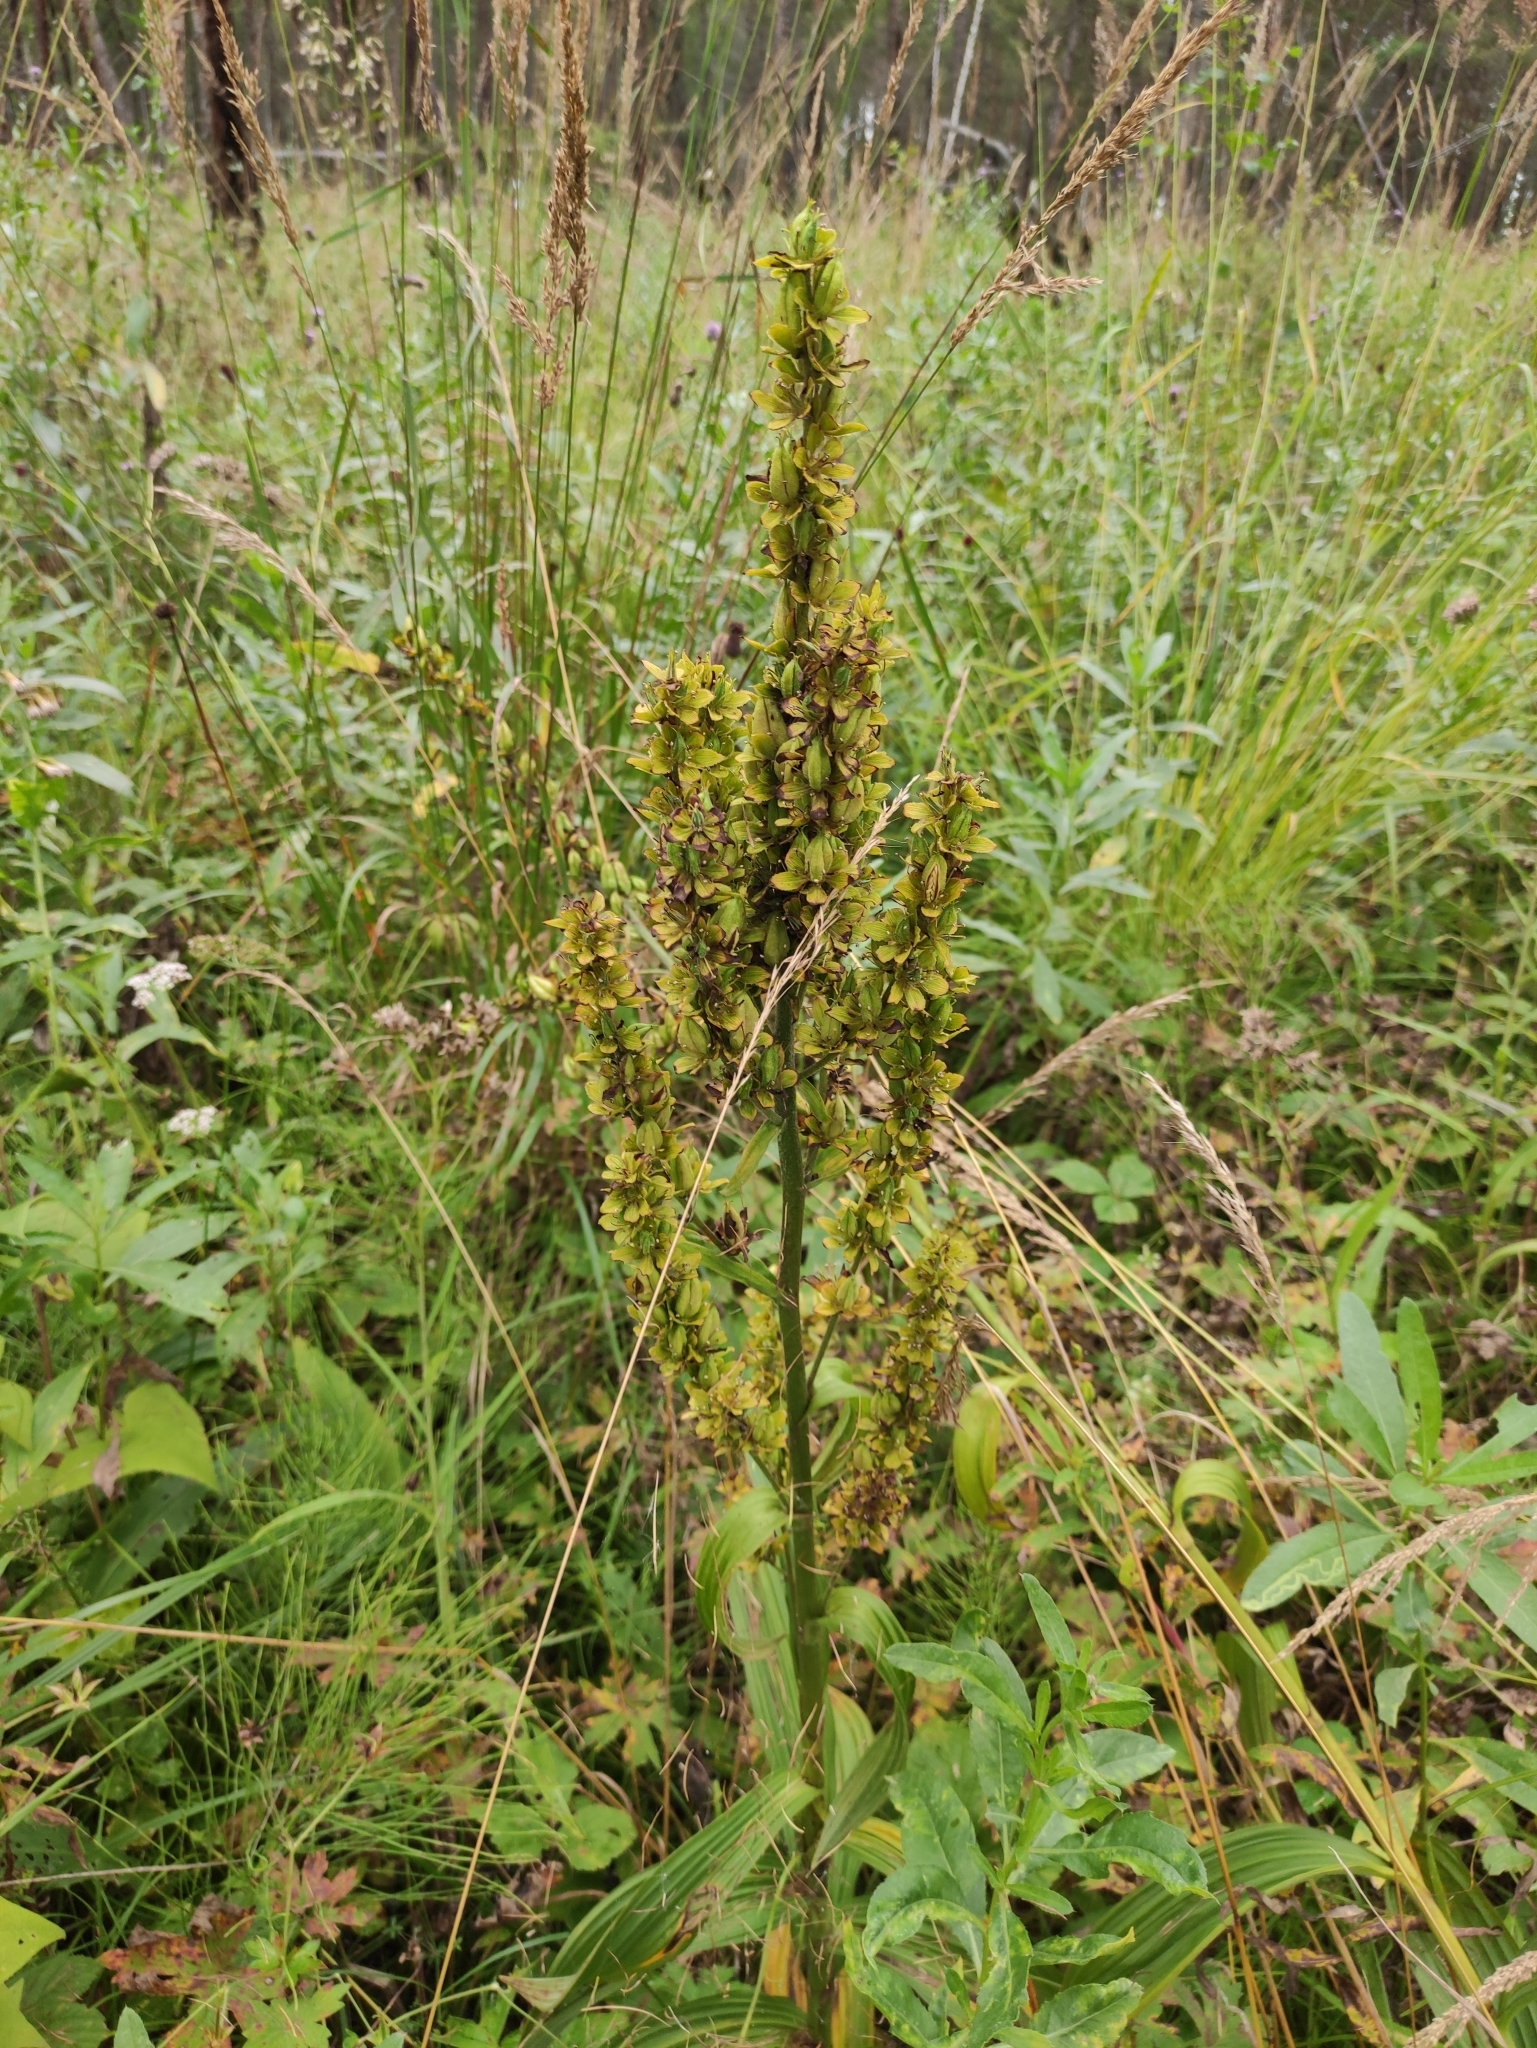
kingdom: Plantae
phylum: Tracheophyta
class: Liliopsida
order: Liliales
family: Melanthiaceae
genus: Veratrum
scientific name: Veratrum lobelianum
